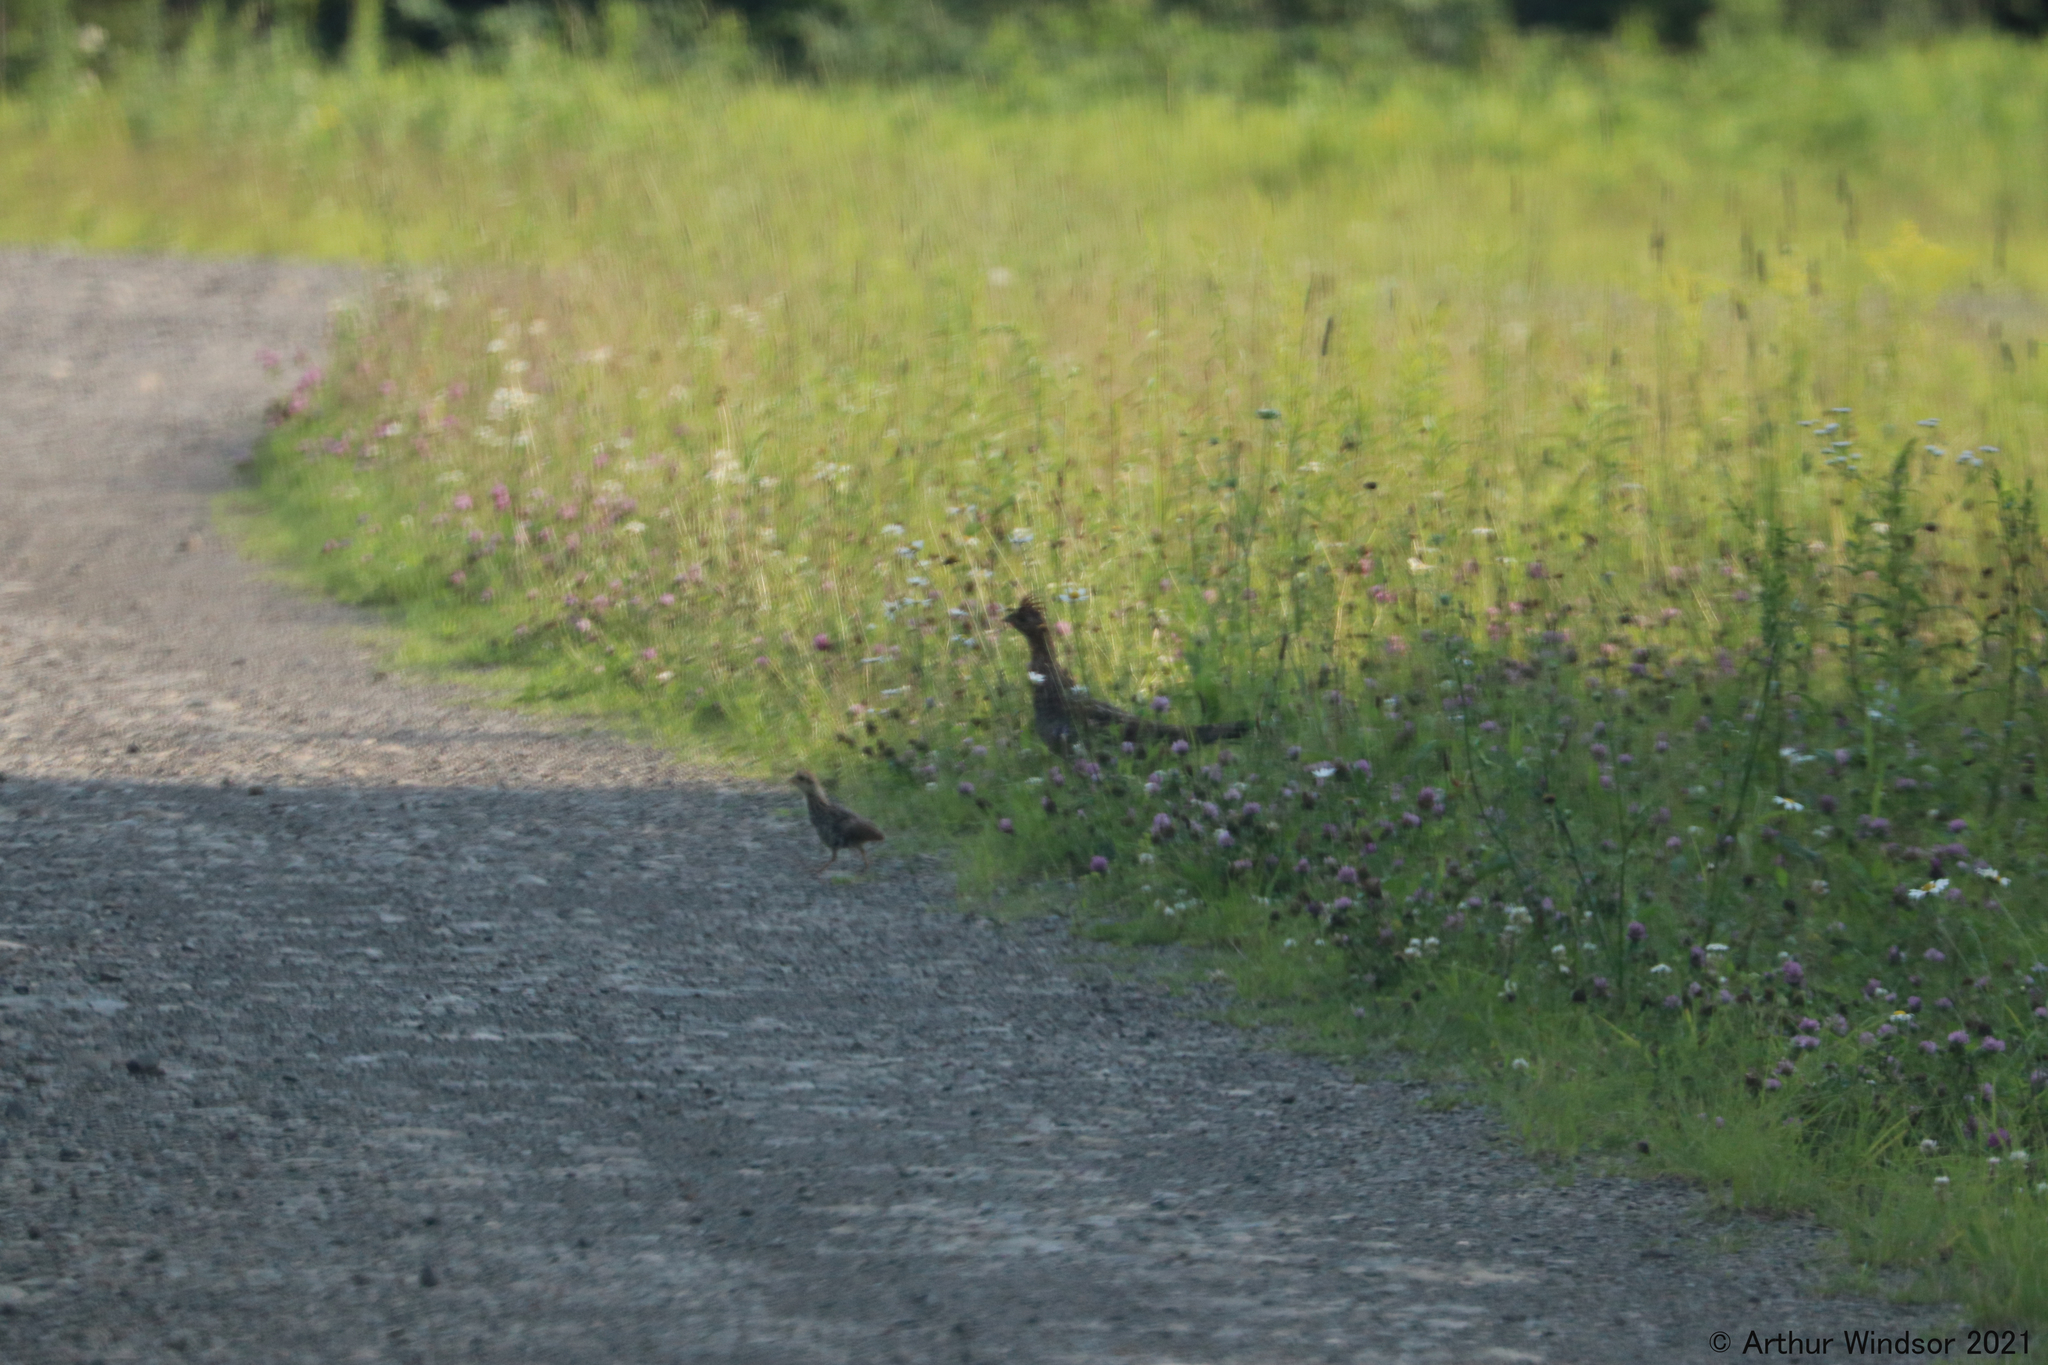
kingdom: Animalia
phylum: Chordata
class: Aves
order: Galliformes
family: Phasianidae
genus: Bonasa
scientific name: Bonasa umbellus
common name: Ruffed grouse
